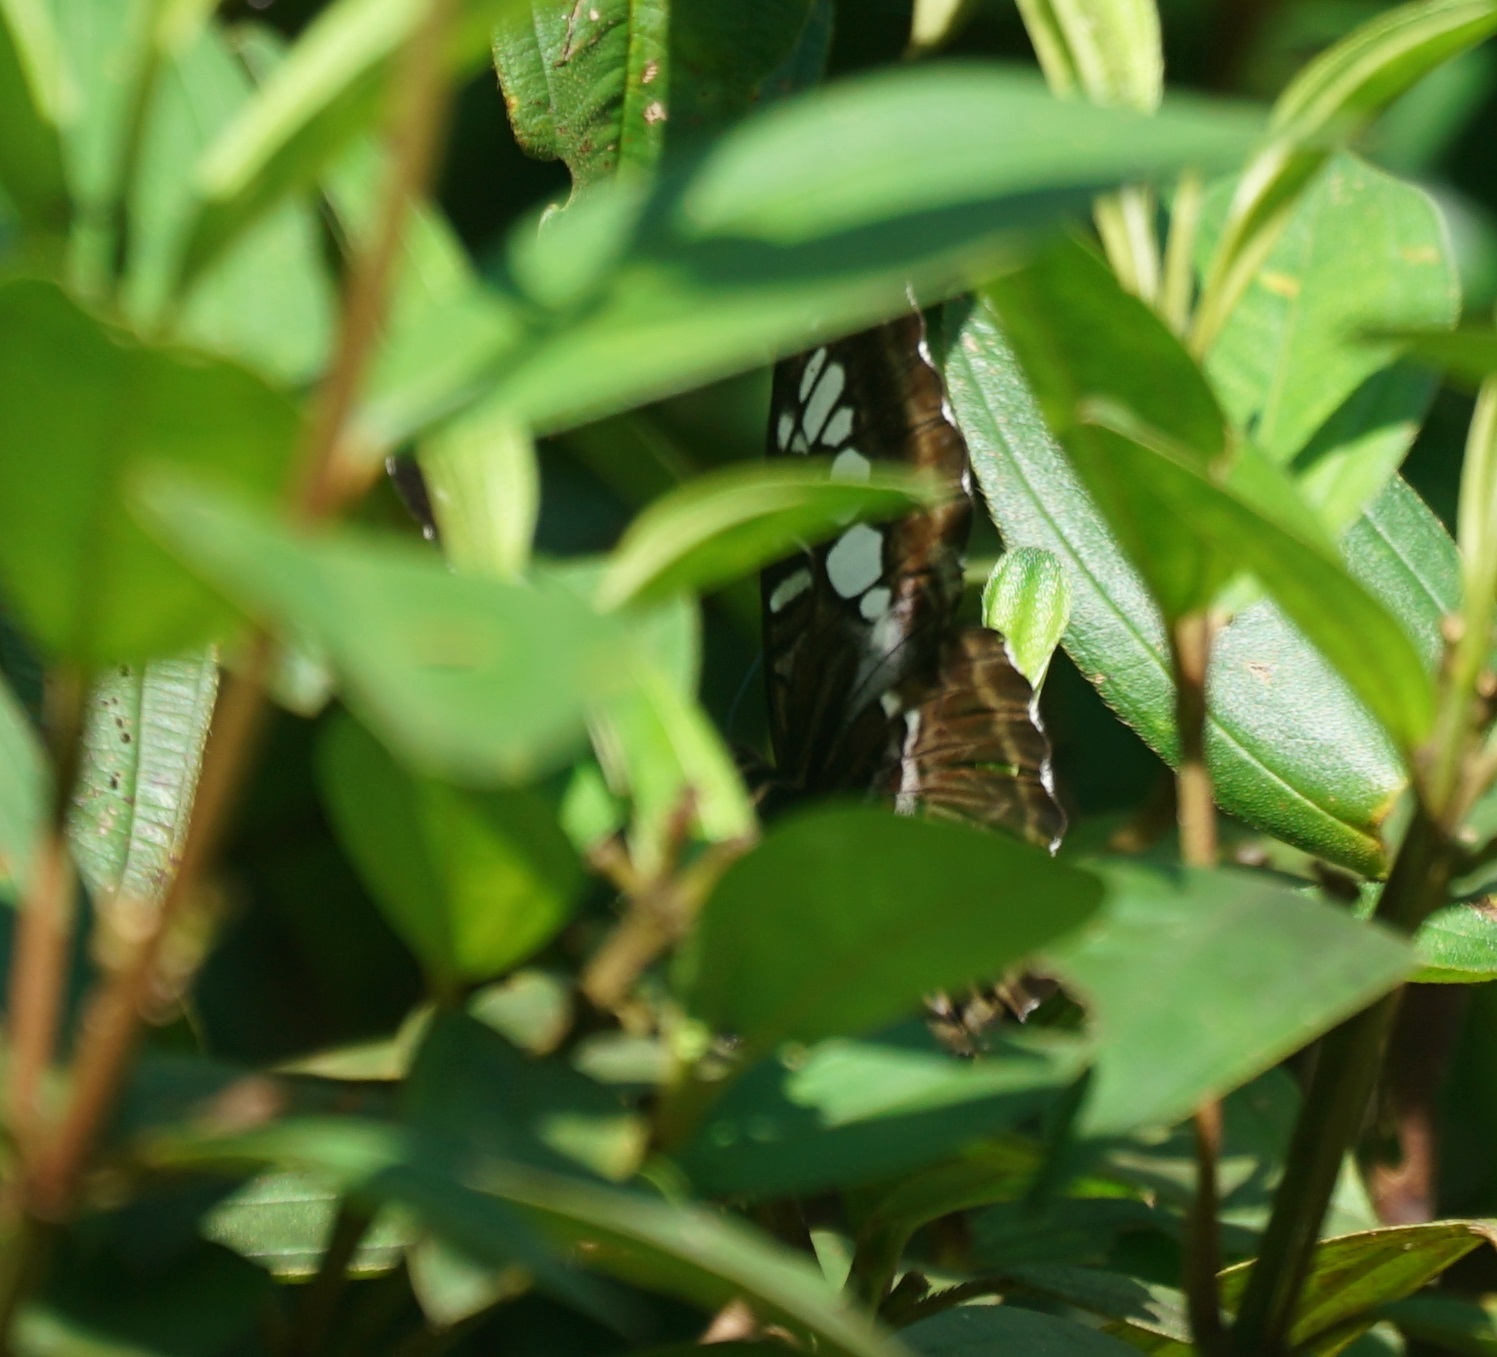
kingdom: Animalia
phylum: Arthropoda
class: Insecta
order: Lepidoptera
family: Nymphalidae
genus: Kallima
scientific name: Kallima sylvia
